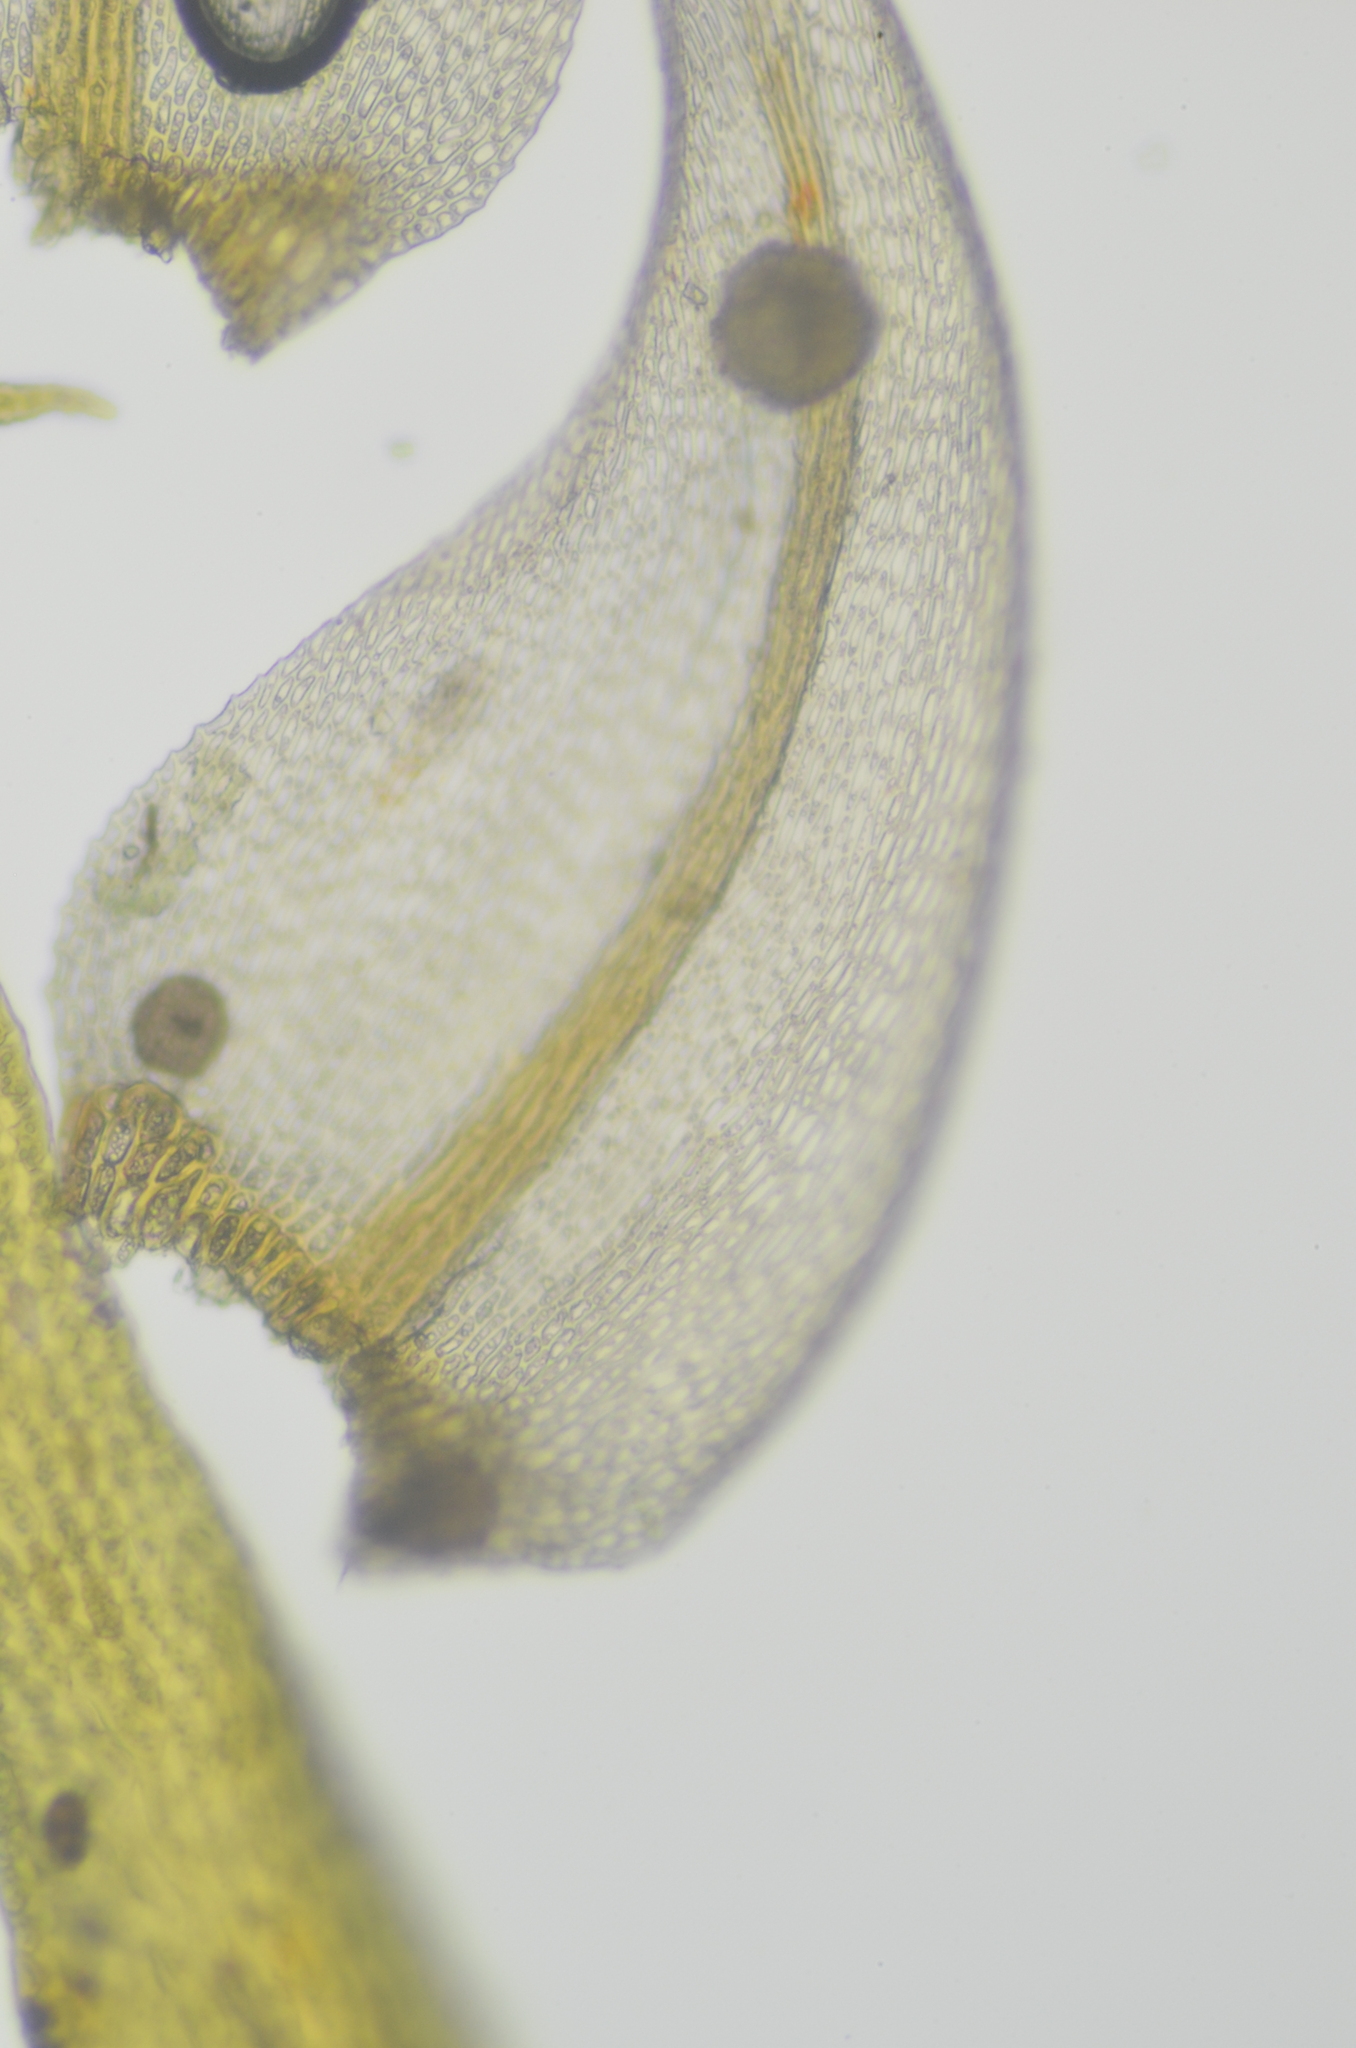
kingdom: Plantae
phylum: Bryophyta
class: Bryopsida
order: Hypnales
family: Amblystegiaceae
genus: Cratoneuron
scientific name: Cratoneuron filicinum
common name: Fern-leaved hook moss
